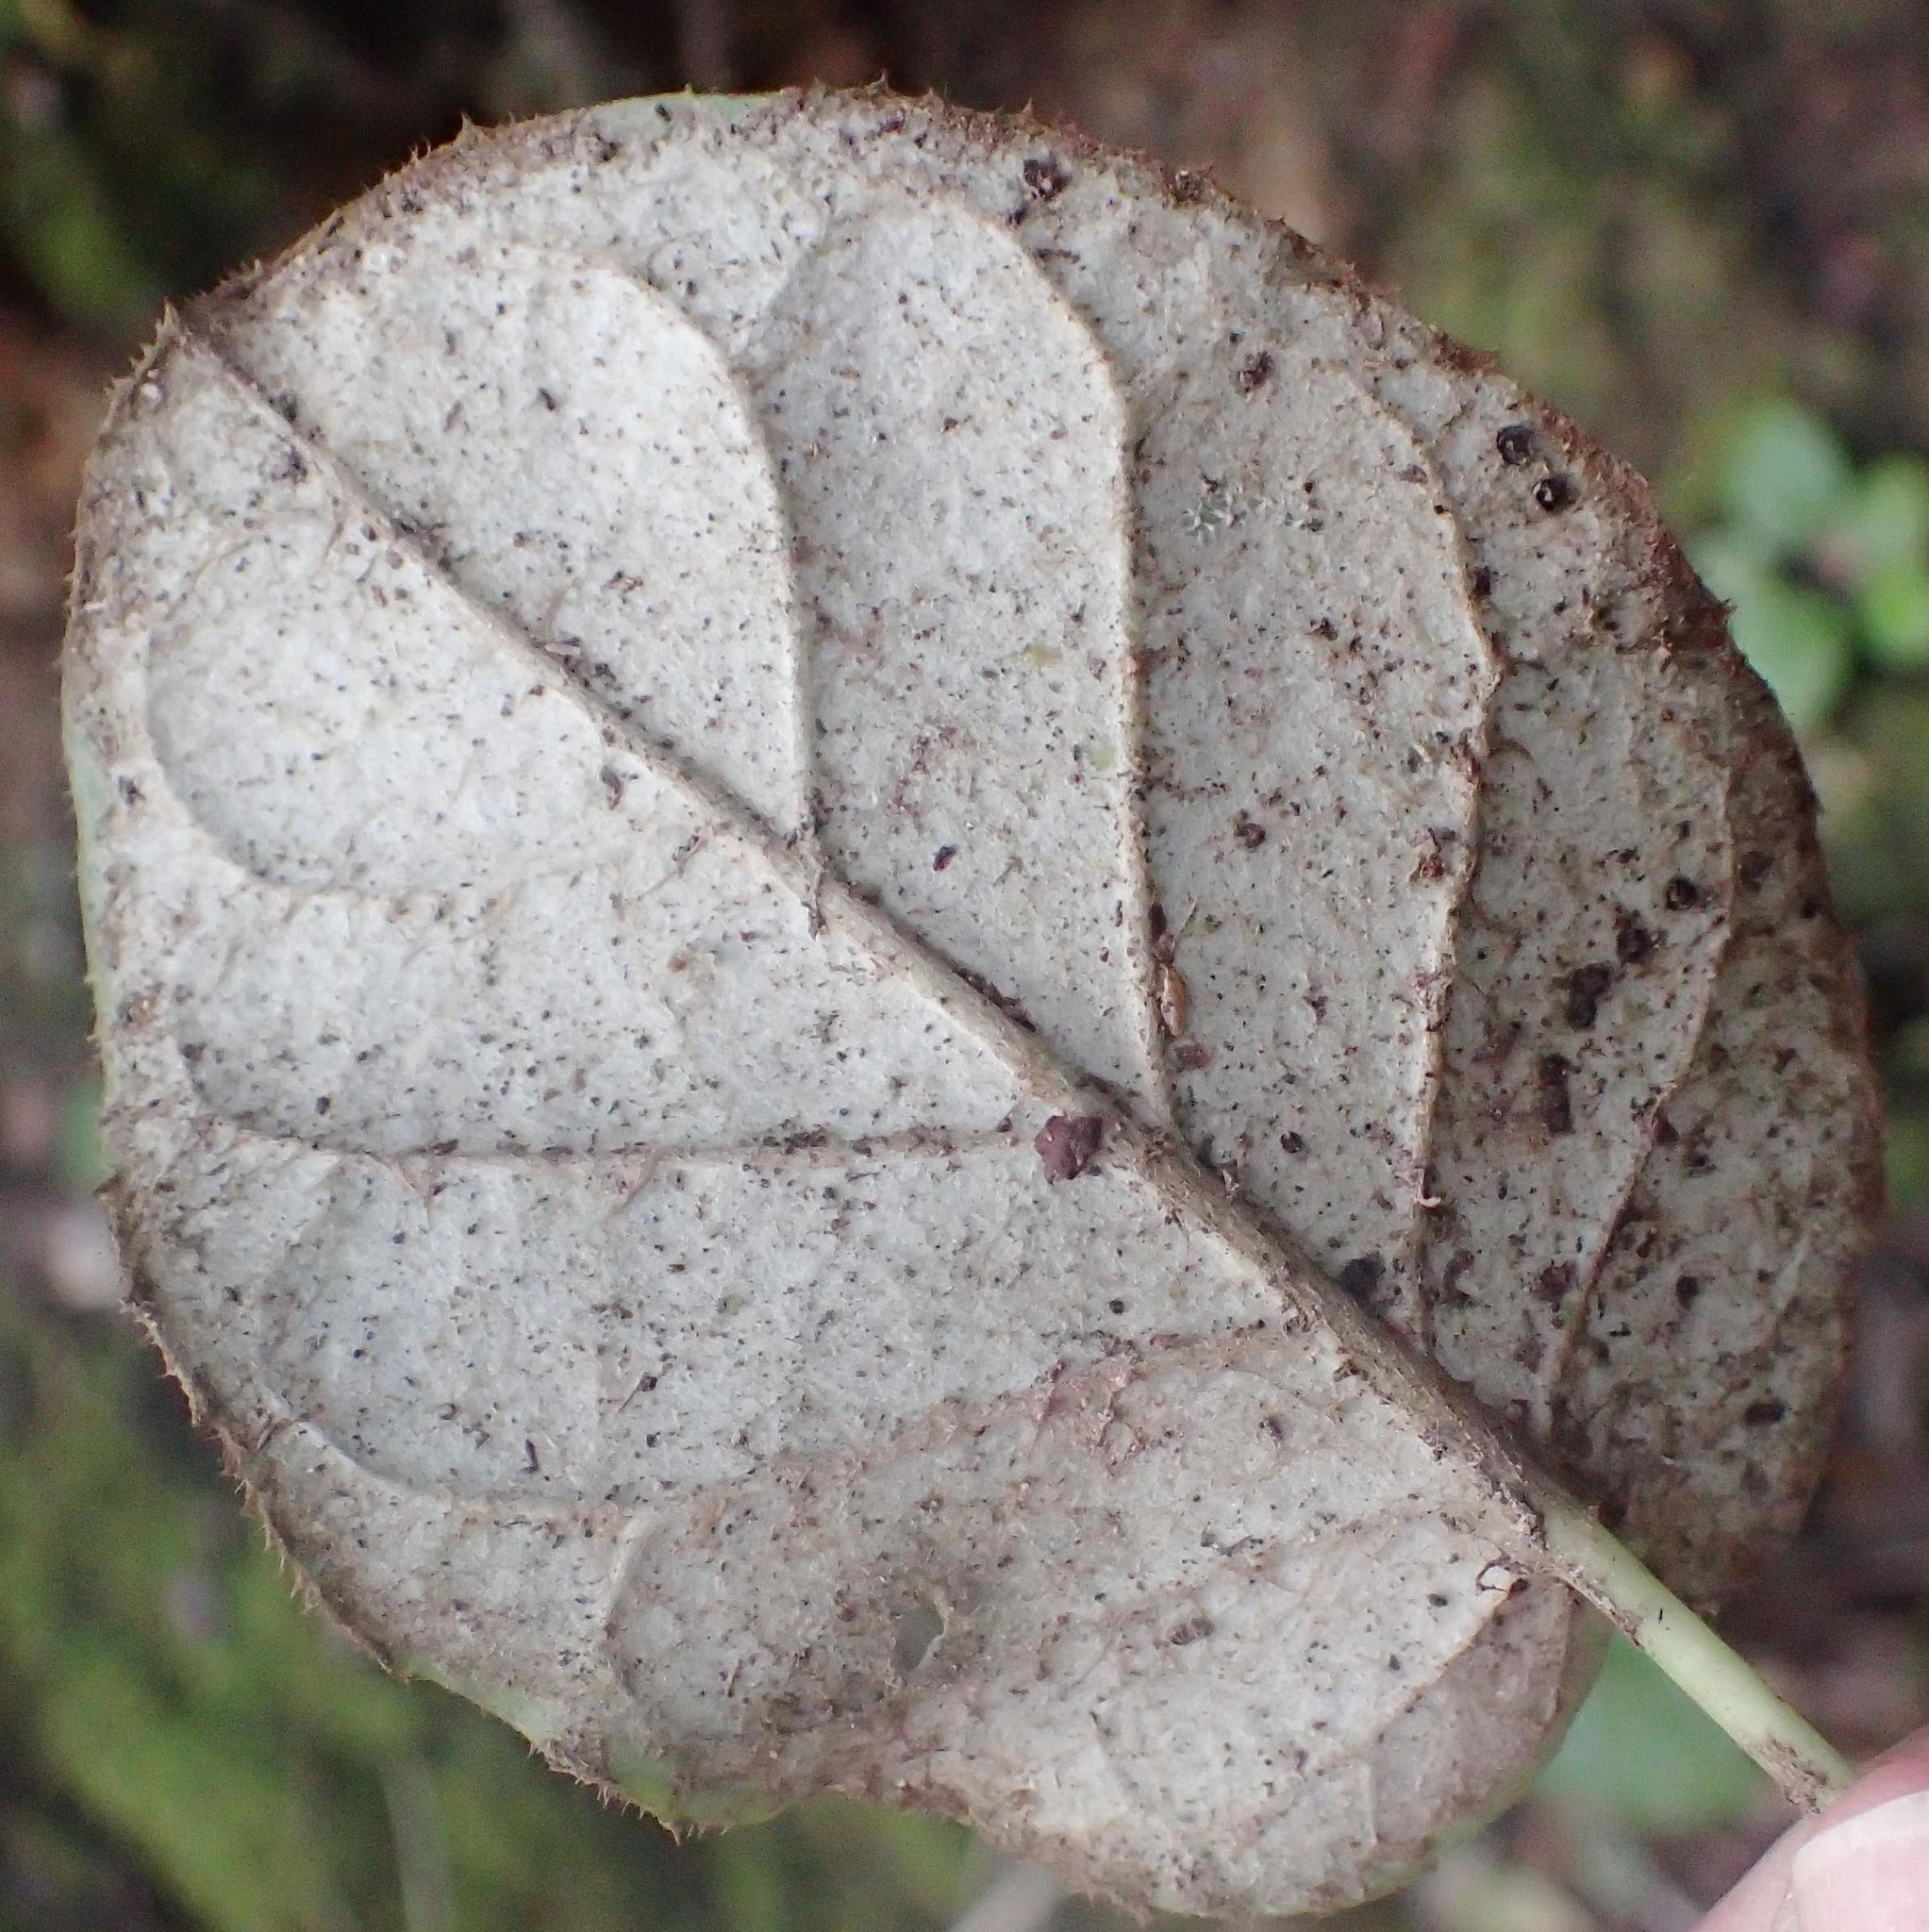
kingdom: Plantae
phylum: Tracheophyta
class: Magnoliopsida
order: Asterales
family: Asteraceae
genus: Piloselloides
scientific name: Piloselloides cordata
